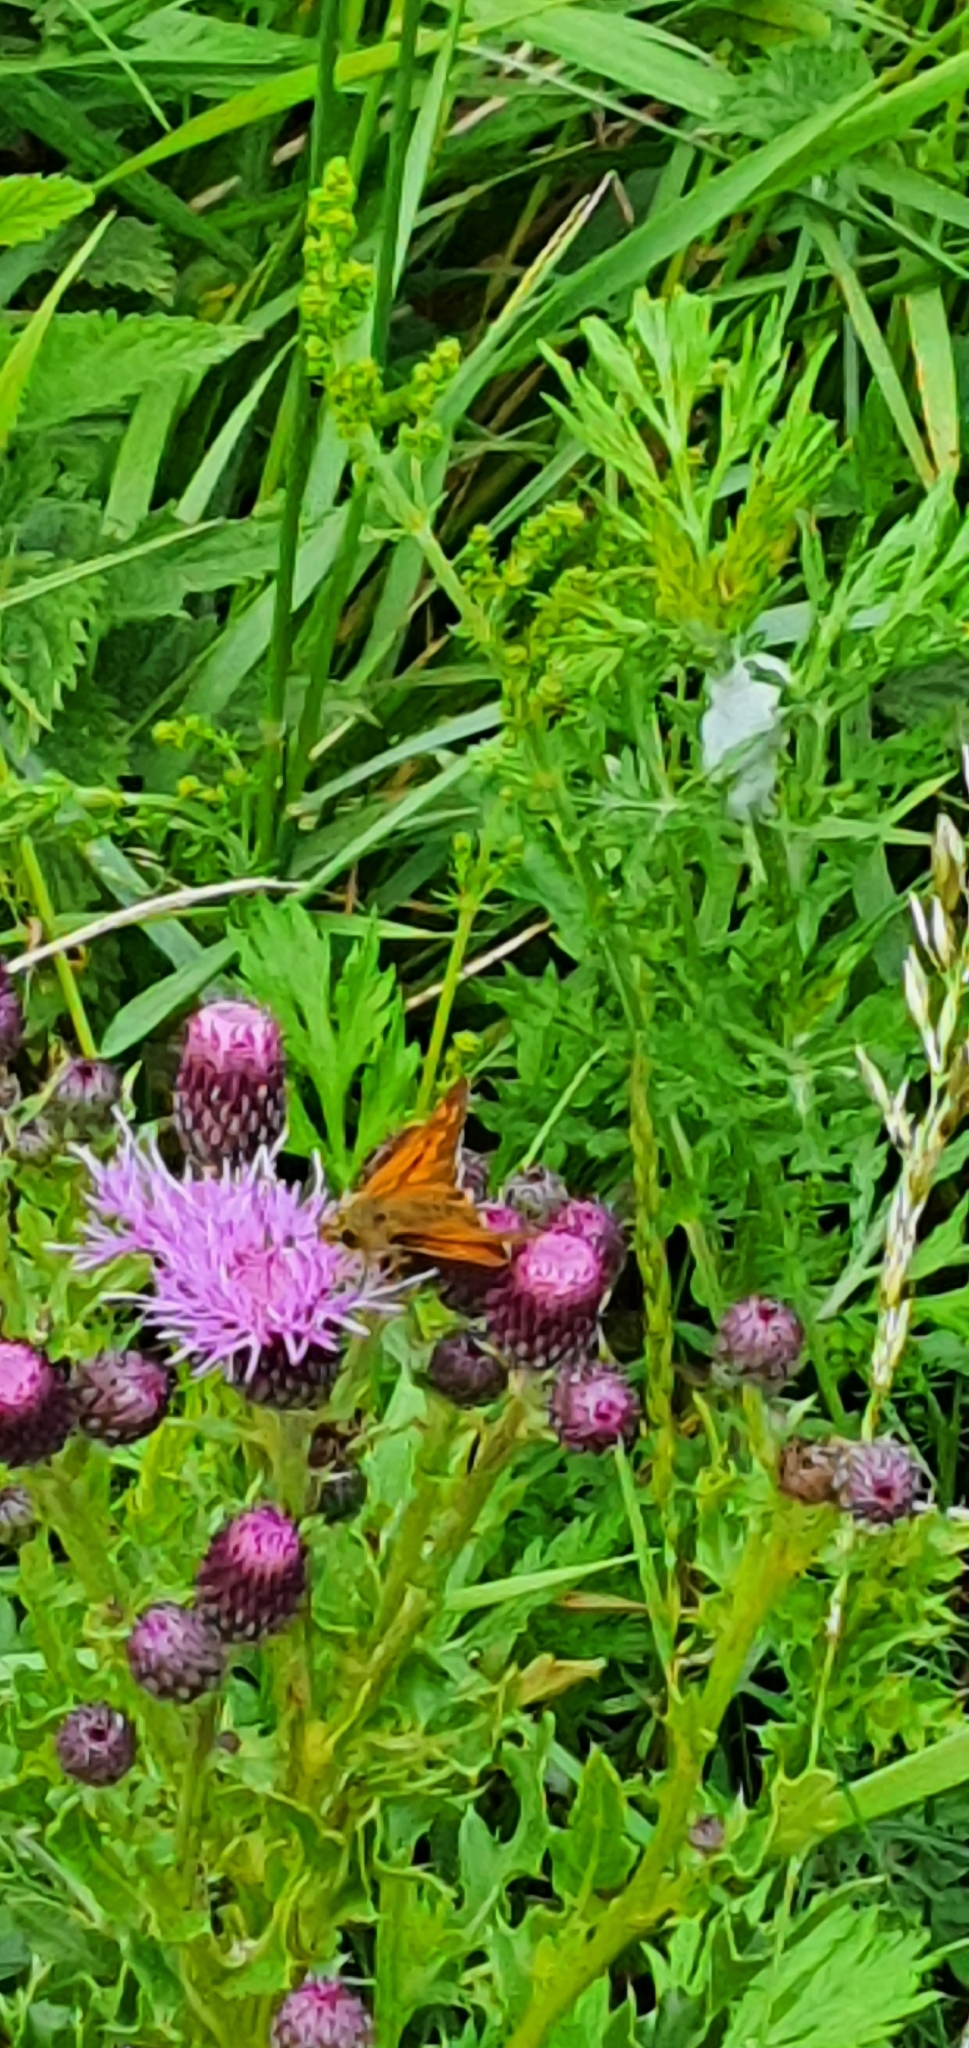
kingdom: Animalia
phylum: Arthropoda
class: Insecta
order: Lepidoptera
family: Hesperiidae
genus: Ochlodes
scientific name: Ochlodes venata
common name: Large skipper
